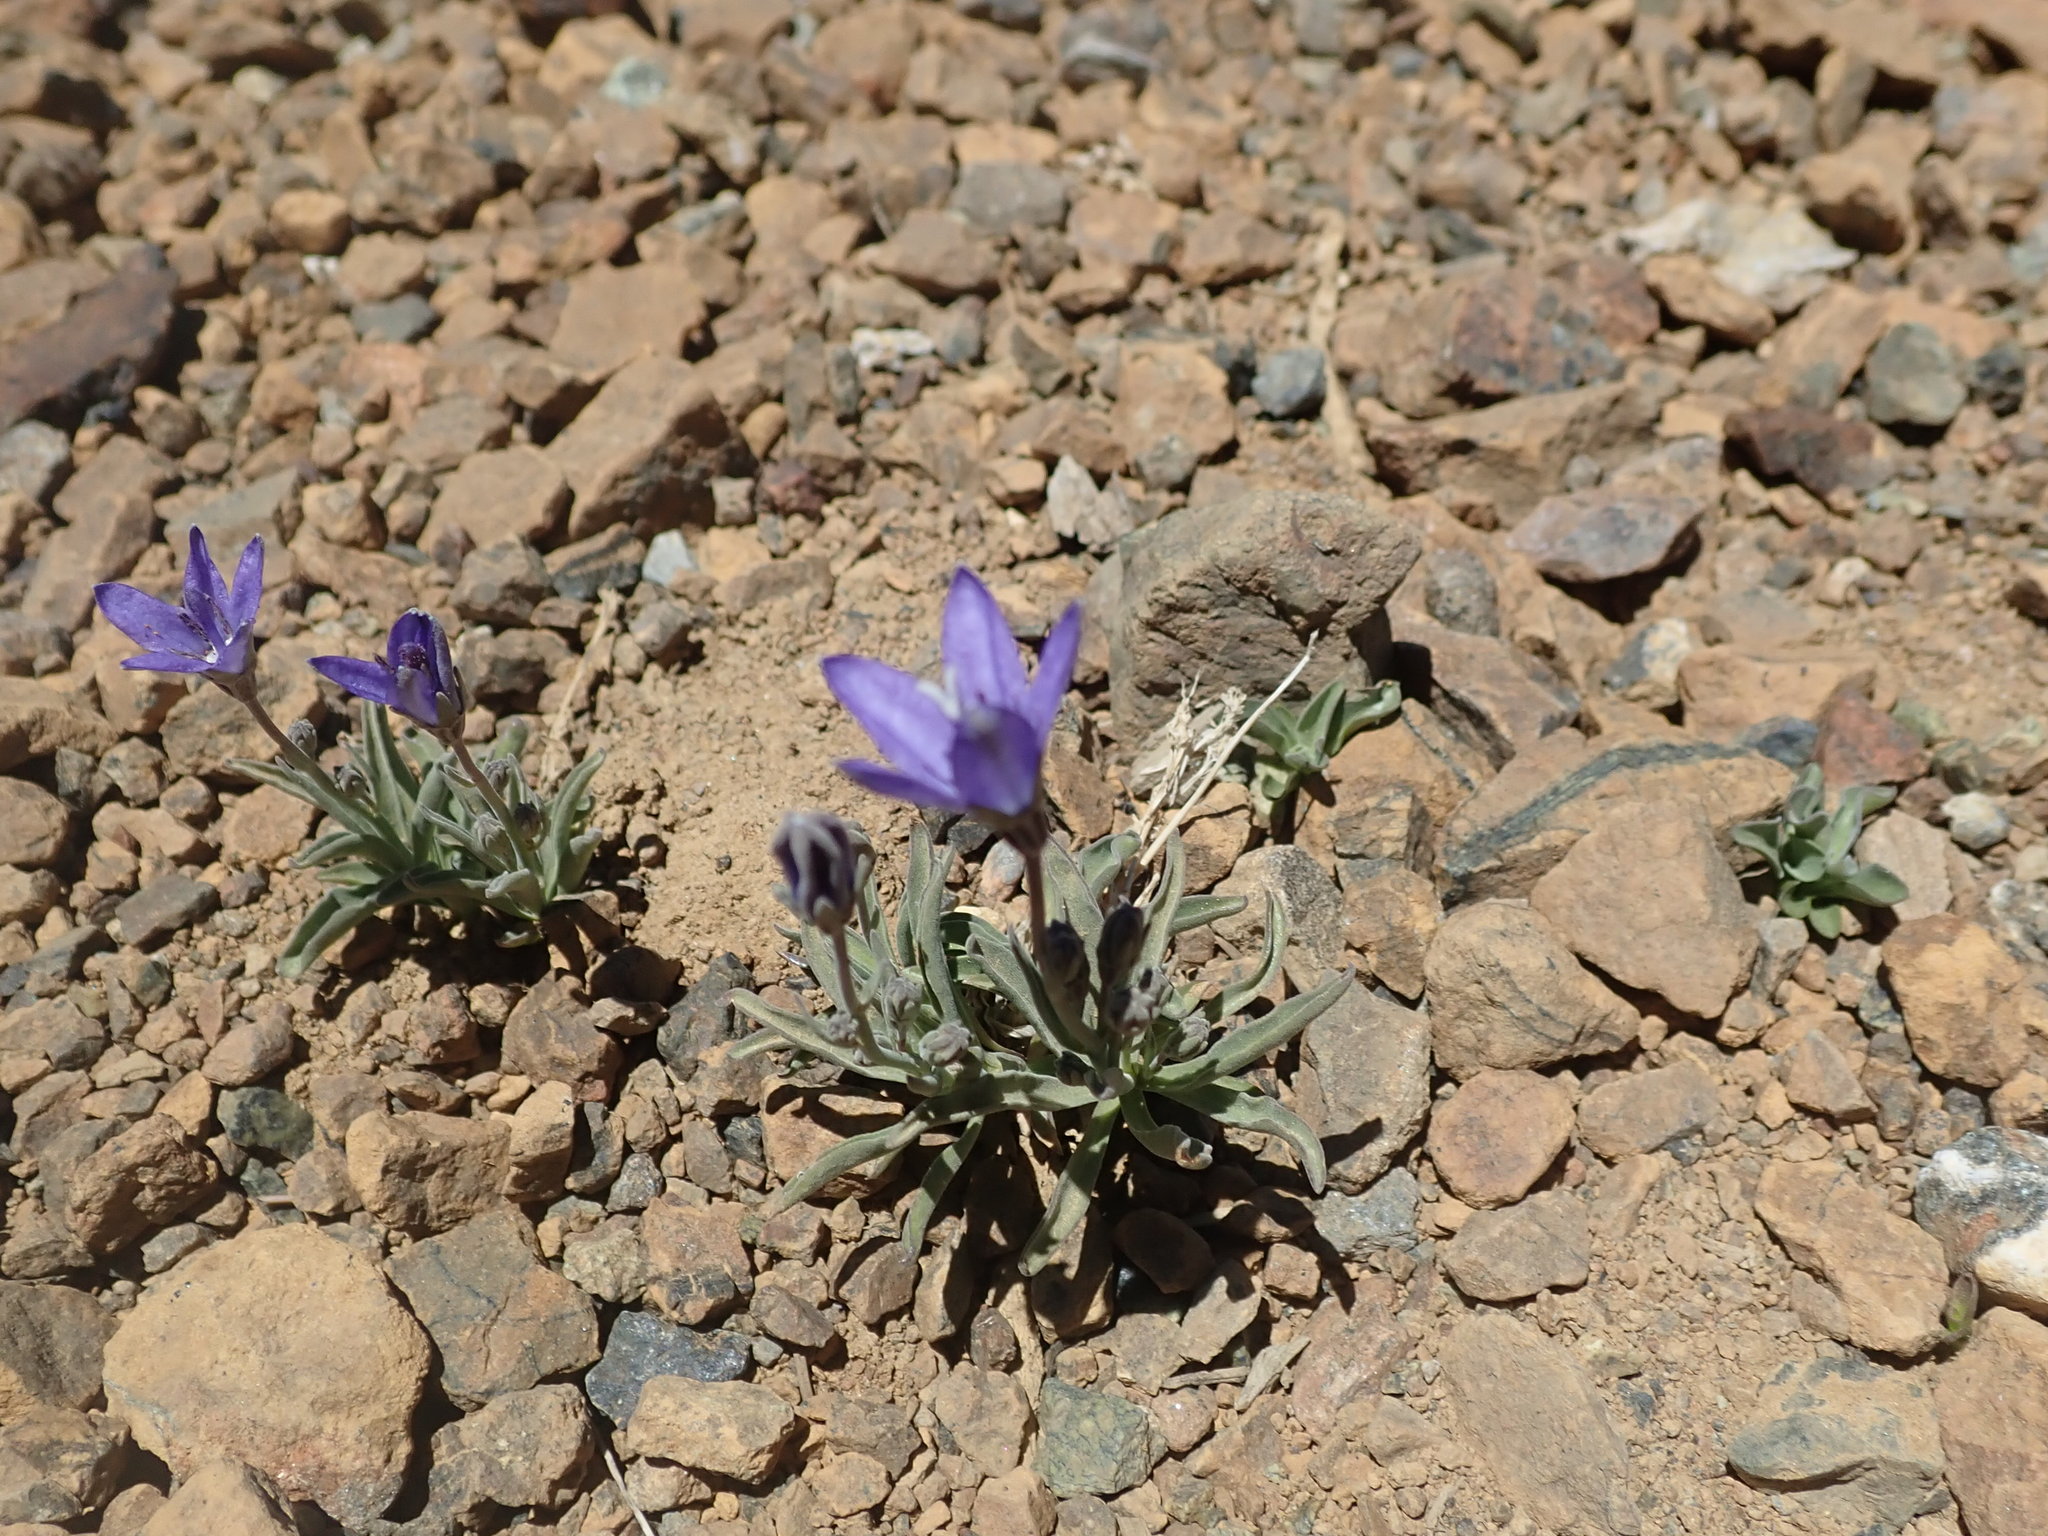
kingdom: Plantae
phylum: Tracheophyta
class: Magnoliopsida
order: Asterales
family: Campanulaceae
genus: Campanula
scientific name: Campanula scabrella
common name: Downy alpine bellflower
